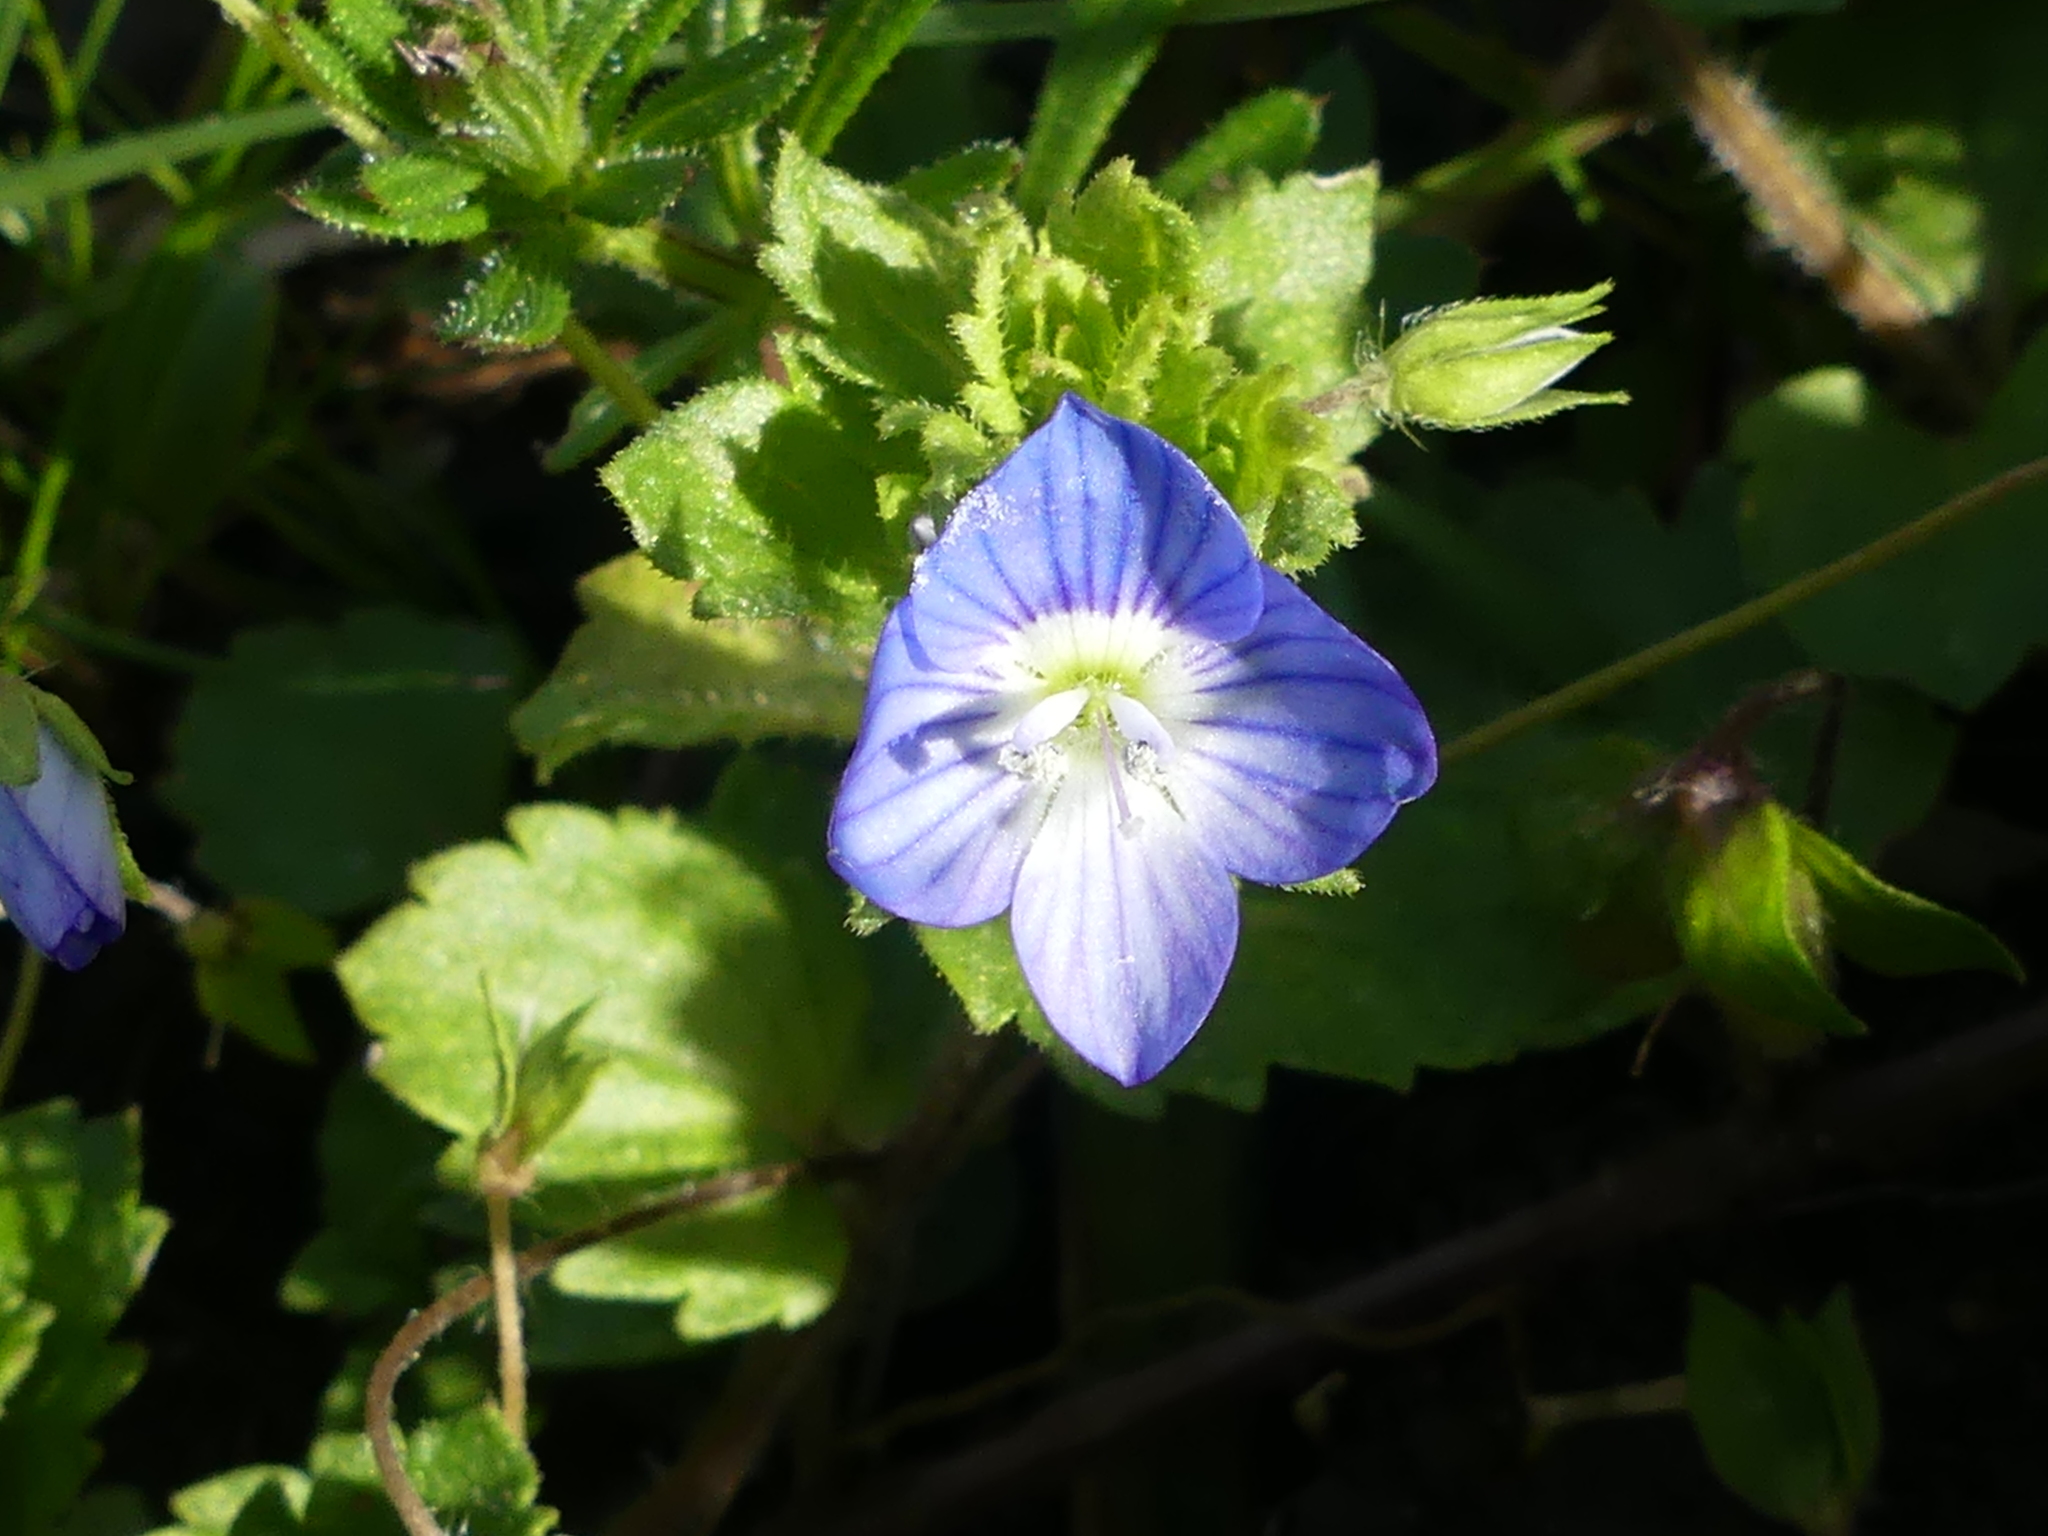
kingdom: Plantae
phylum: Tracheophyta
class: Magnoliopsida
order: Lamiales
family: Plantaginaceae
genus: Veronica
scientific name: Veronica persica
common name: Common field-speedwell
